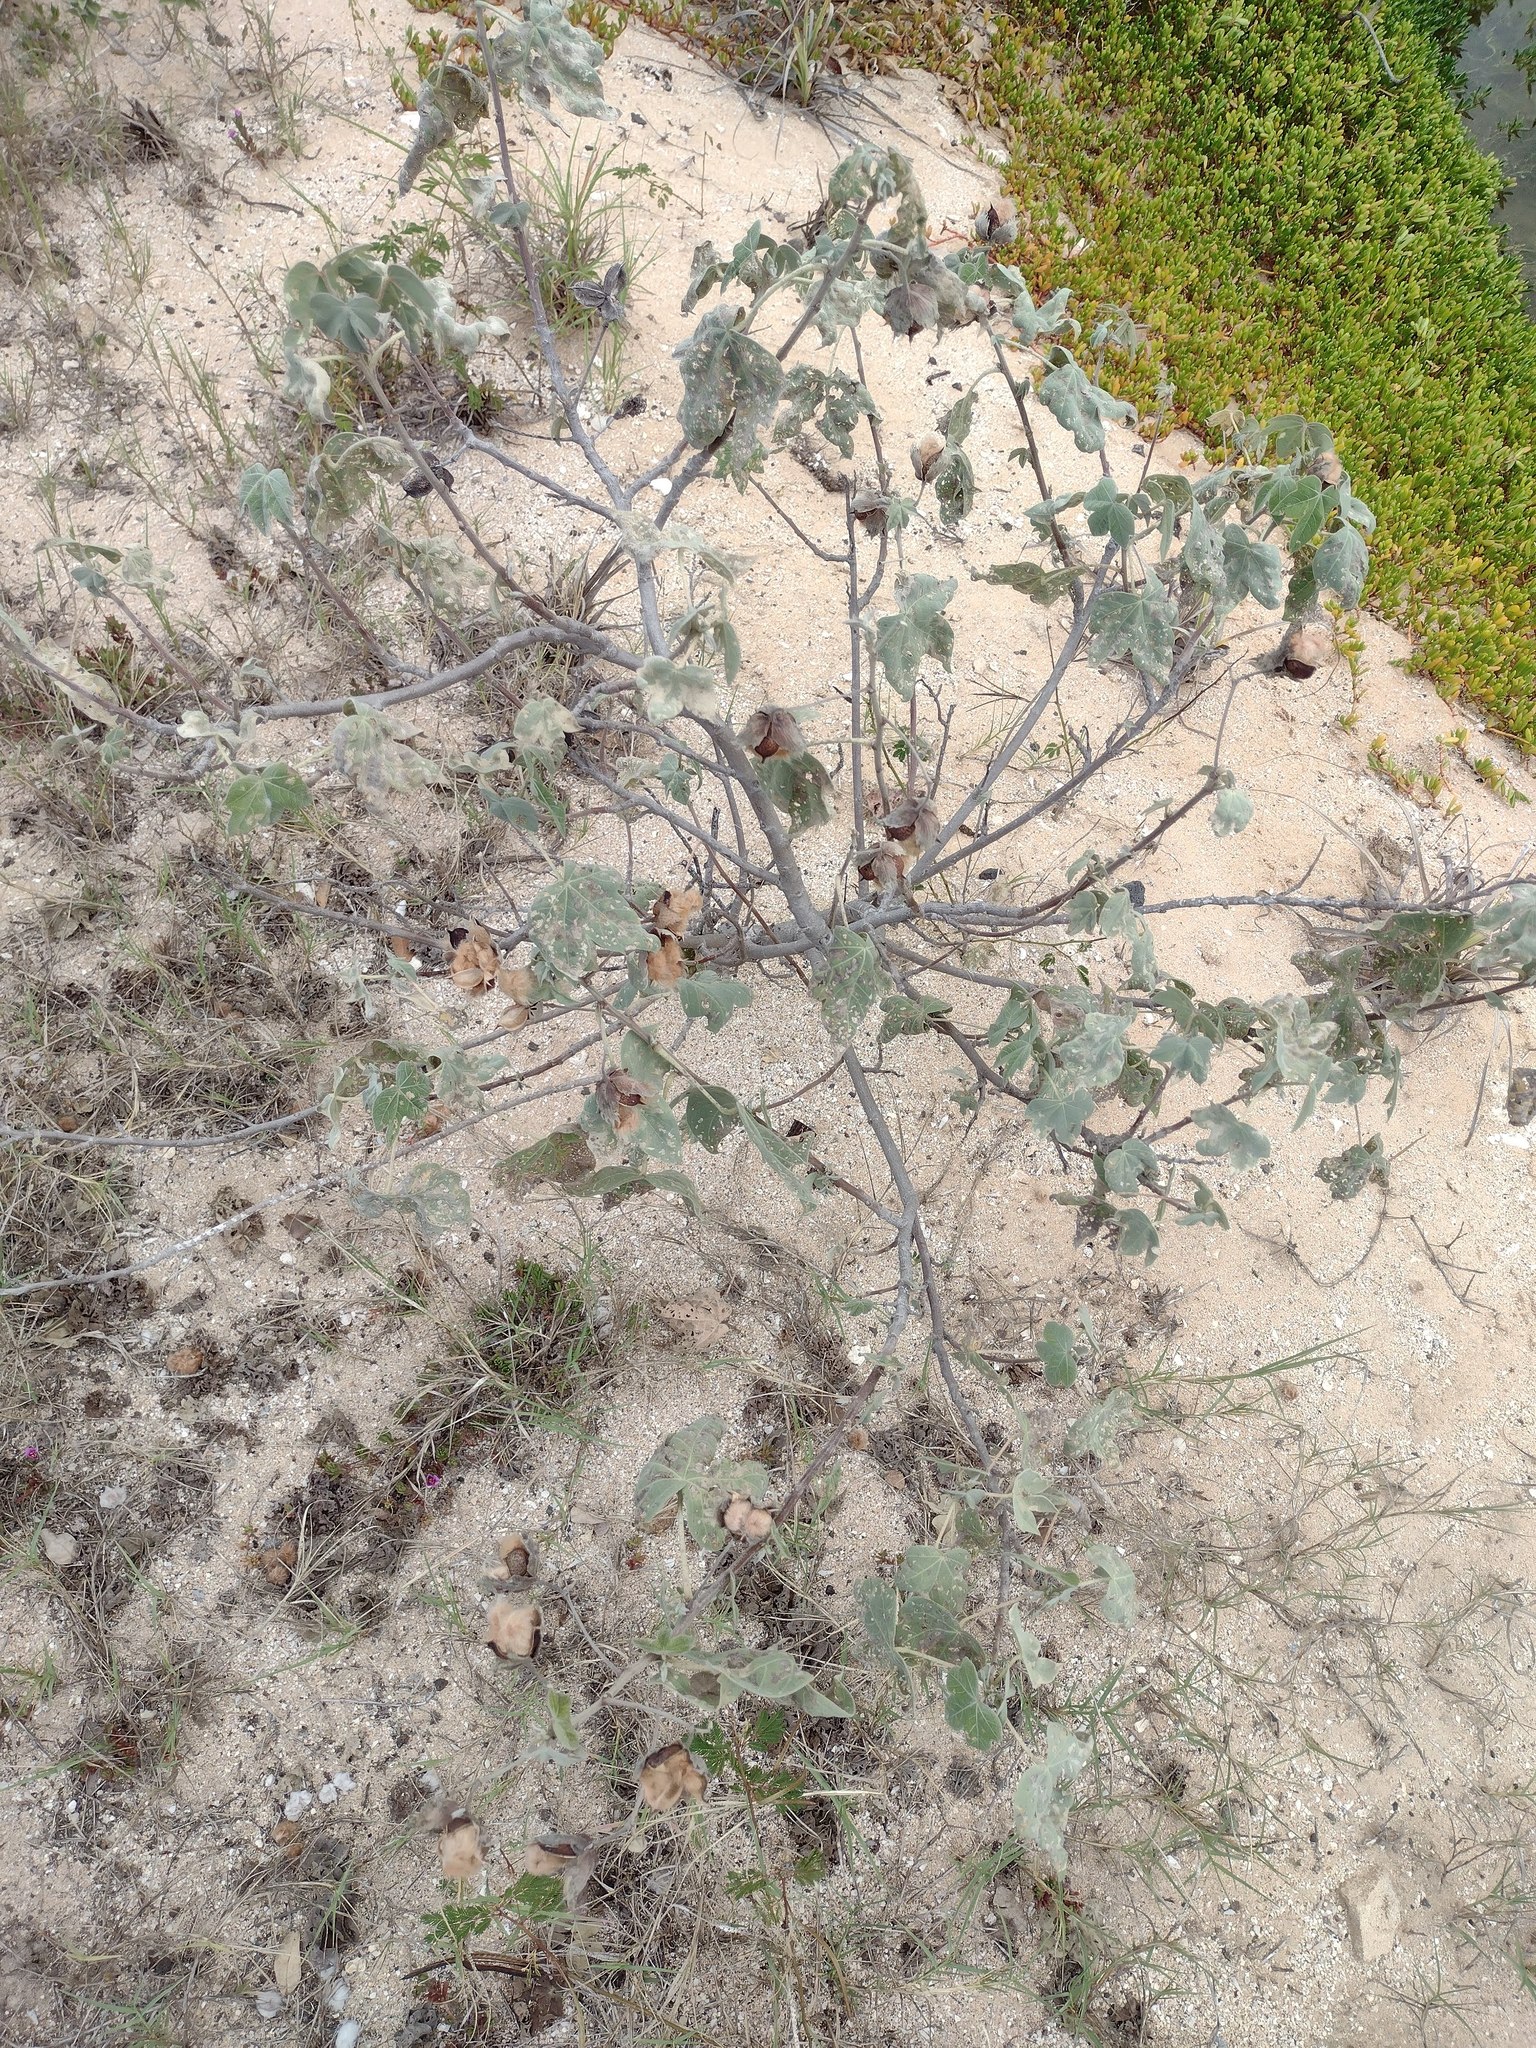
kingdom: Plantae
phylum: Tracheophyta
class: Magnoliopsida
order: Malvales
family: Malvaceae
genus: Gossypium
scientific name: Gossypium tomentosum
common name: Hawaiian cotton
